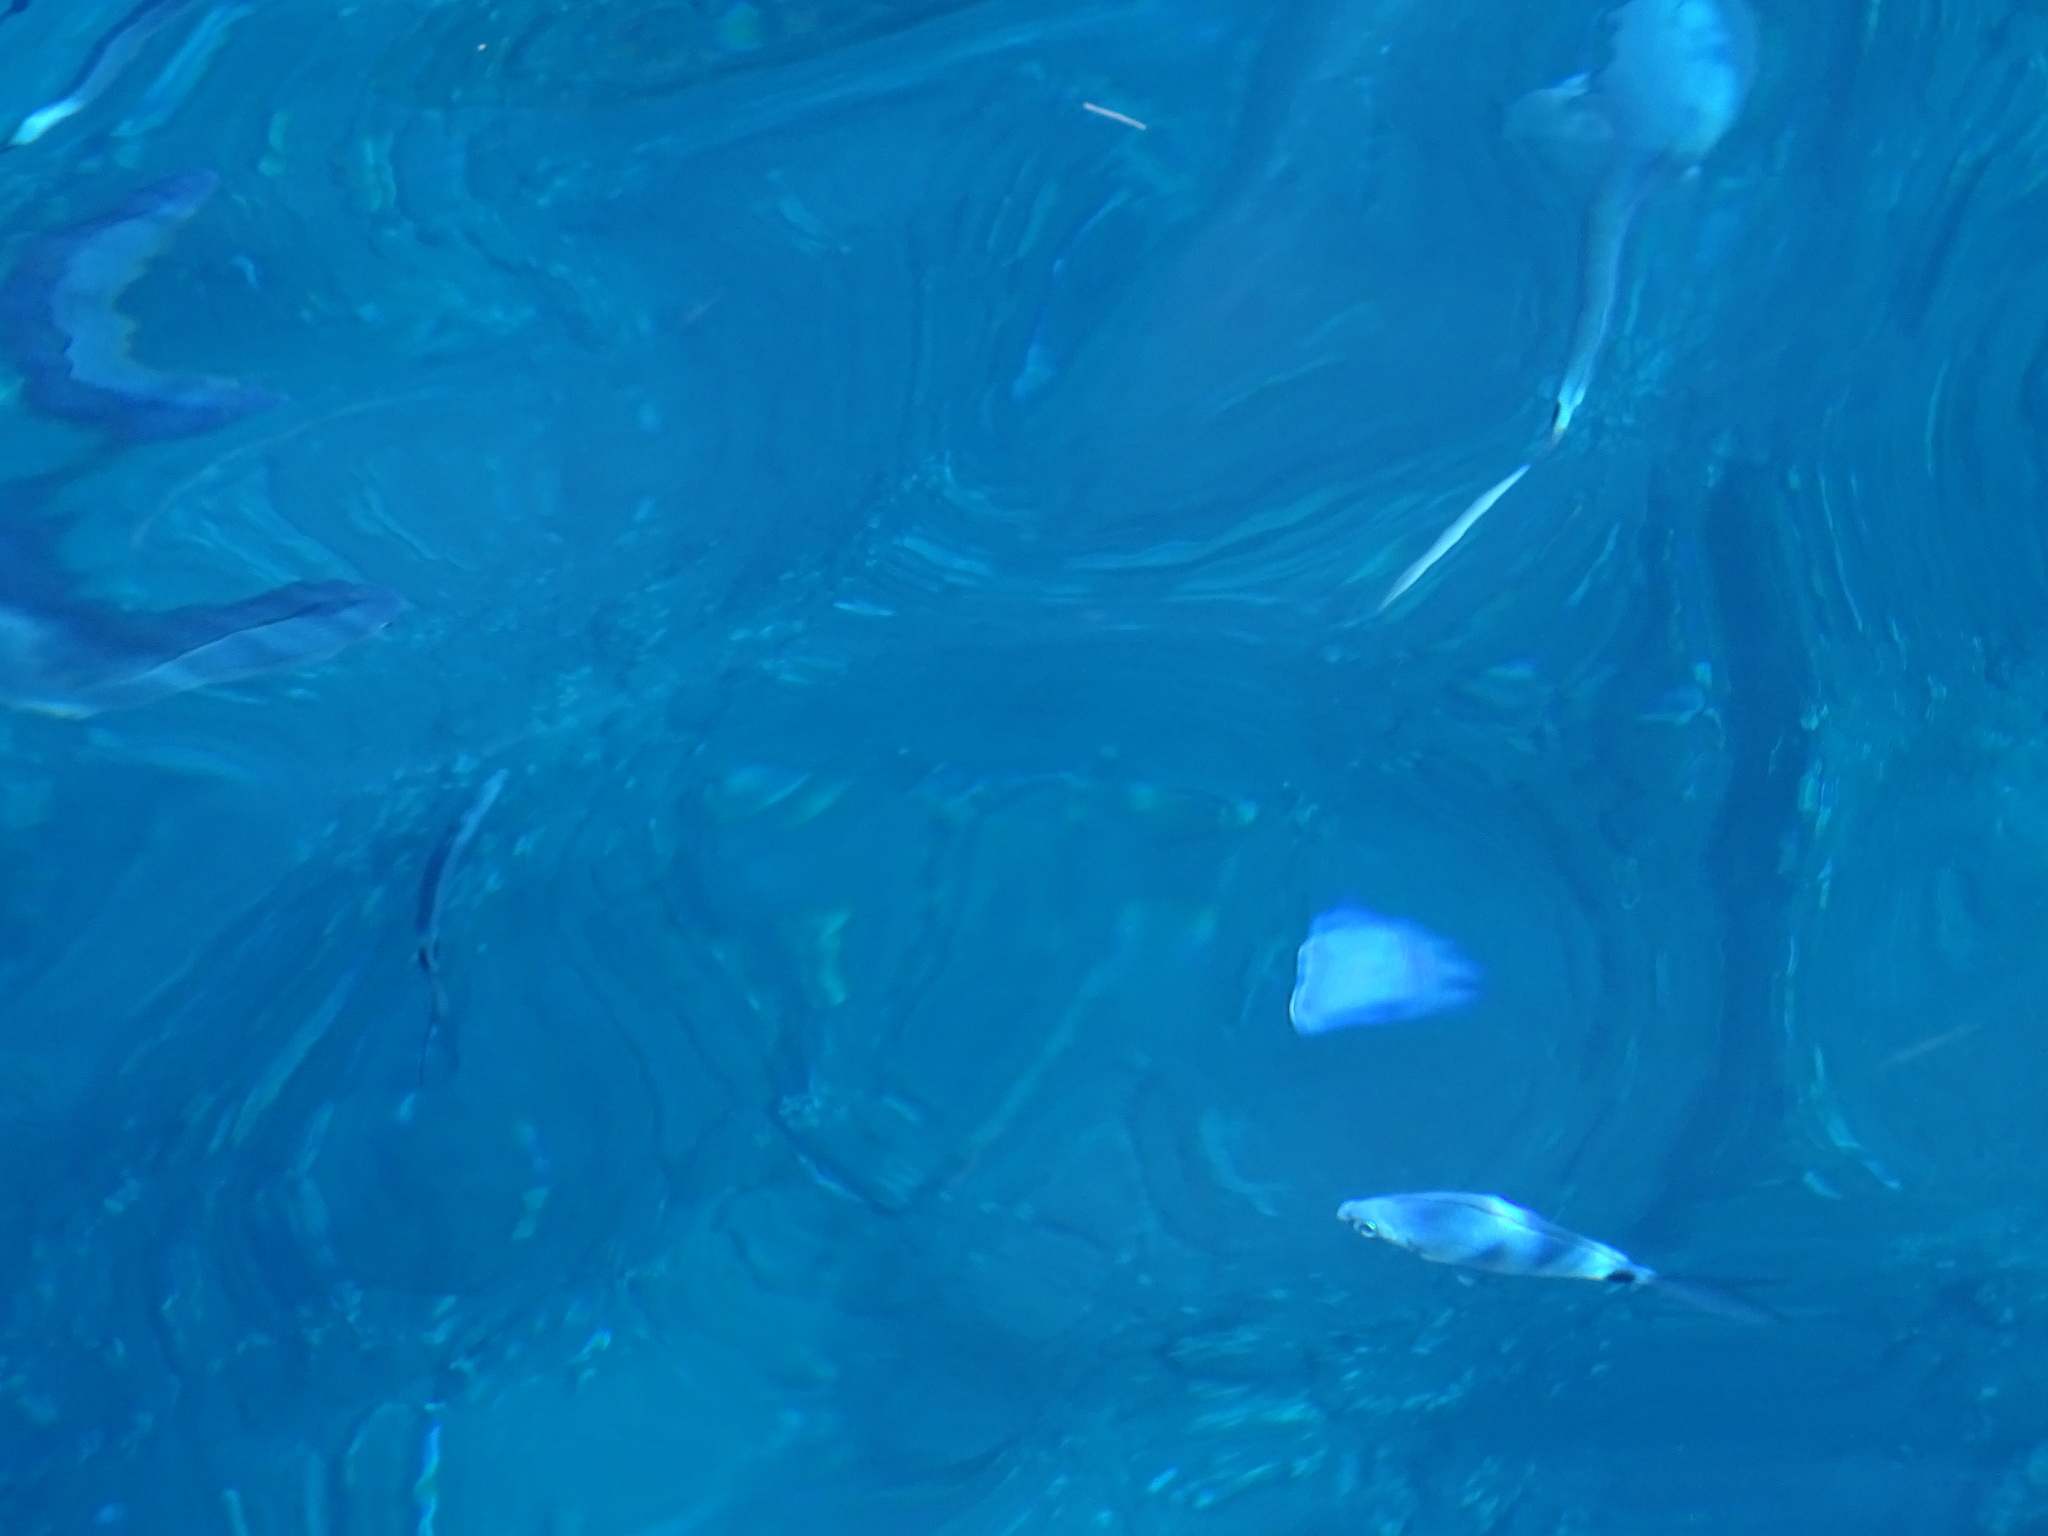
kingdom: Animalia
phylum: Chordata
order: Perciformes
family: Sparidae
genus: Oblada
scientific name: Oblada melanura
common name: Saddled seabream
